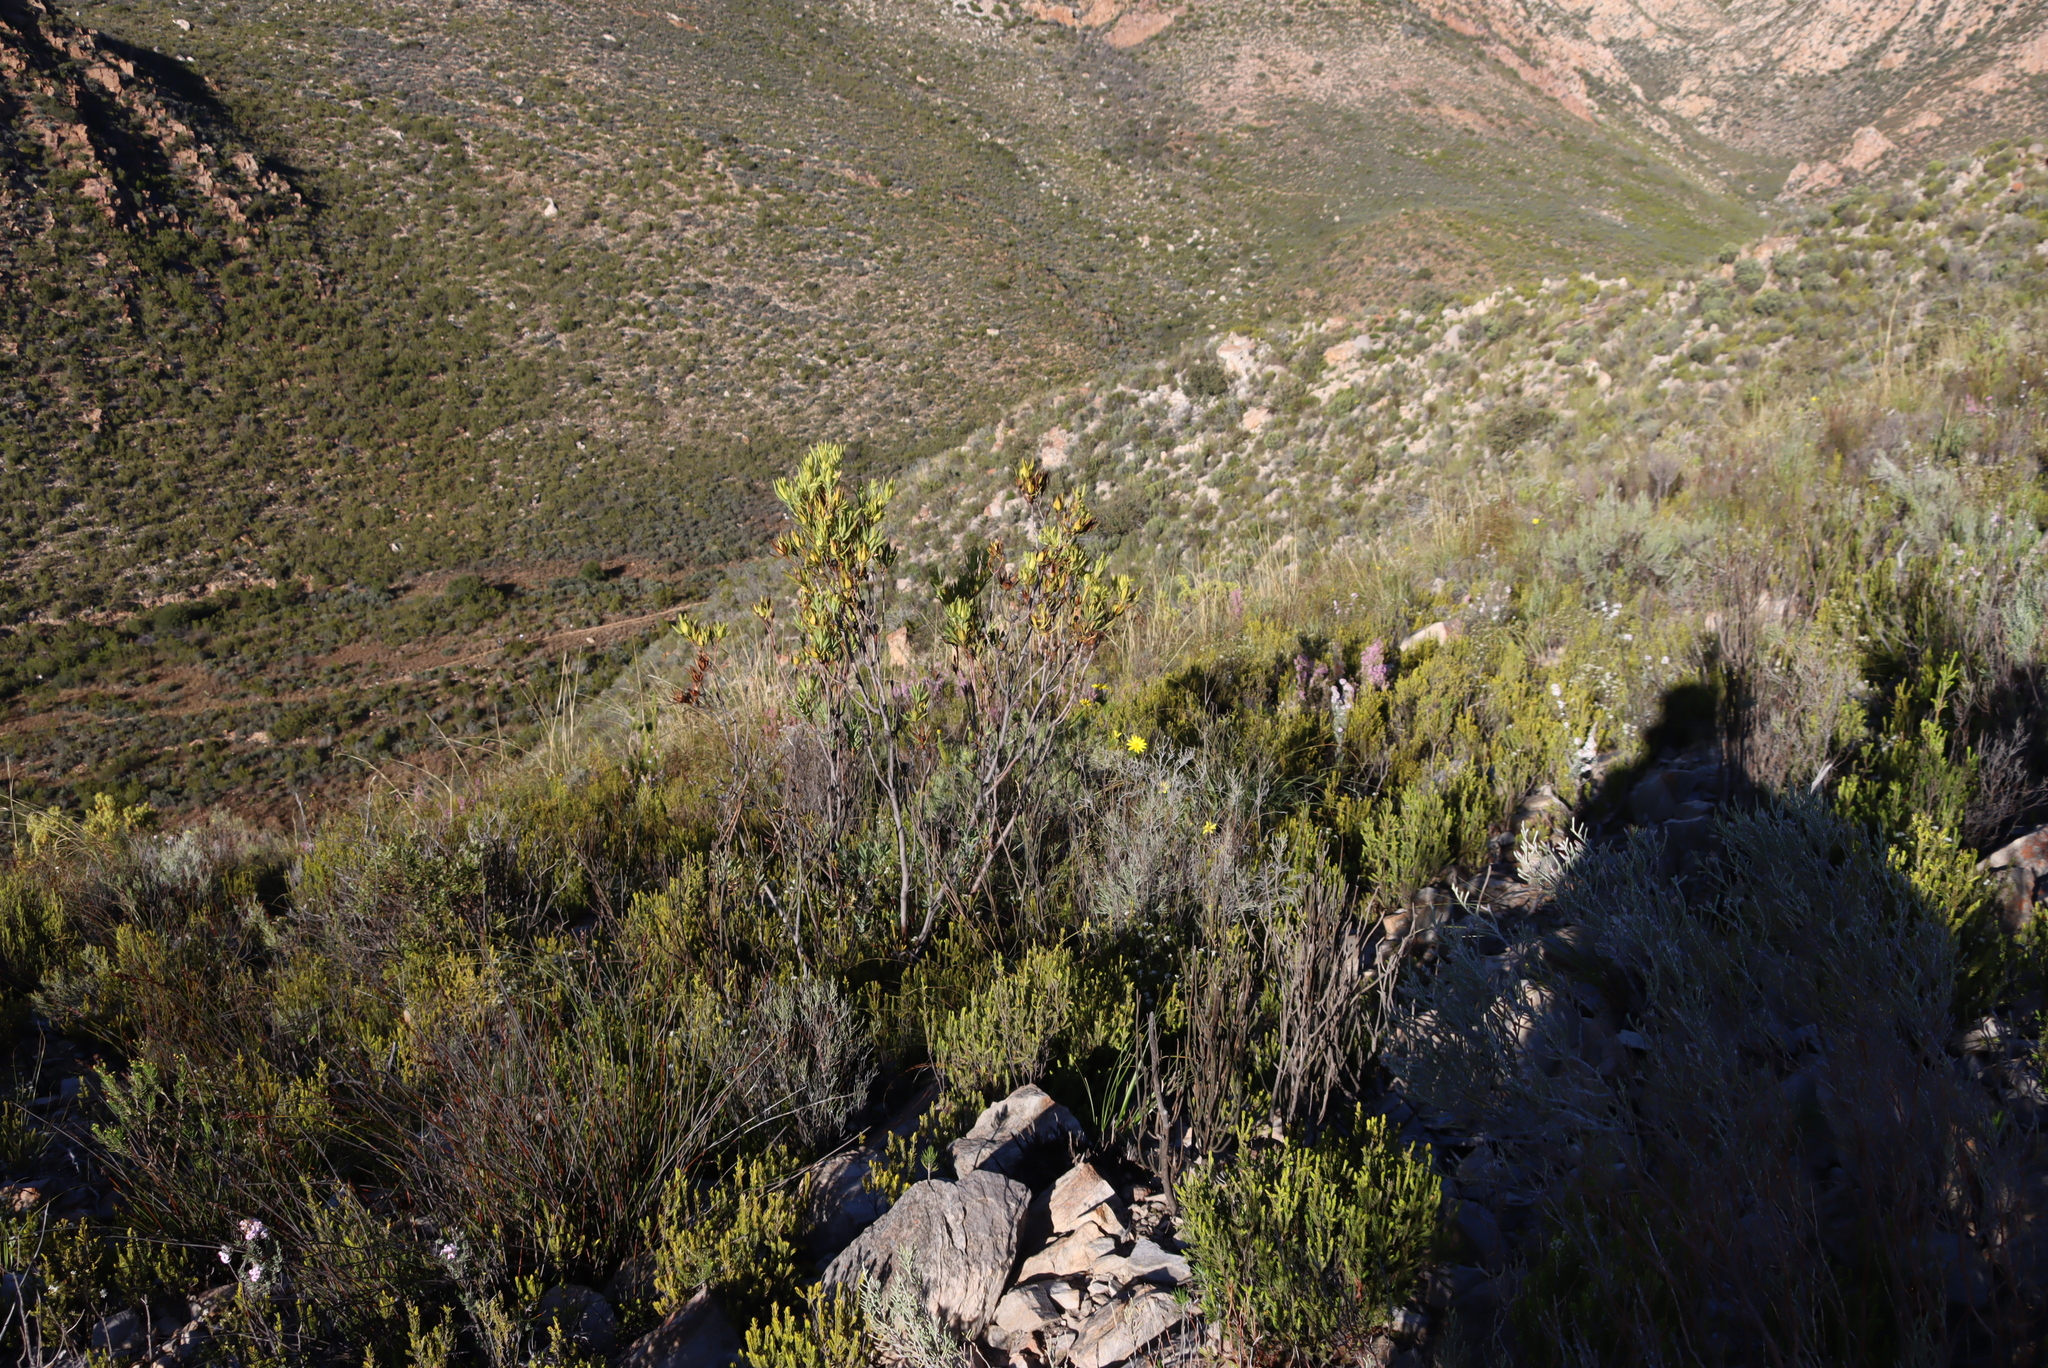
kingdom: Plantae
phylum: Tracheophyta
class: Magnoliopsida
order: Proteales
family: Proteaceae
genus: Leucadendron
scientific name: Leucadendron salignum
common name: Common sunshine conebush
